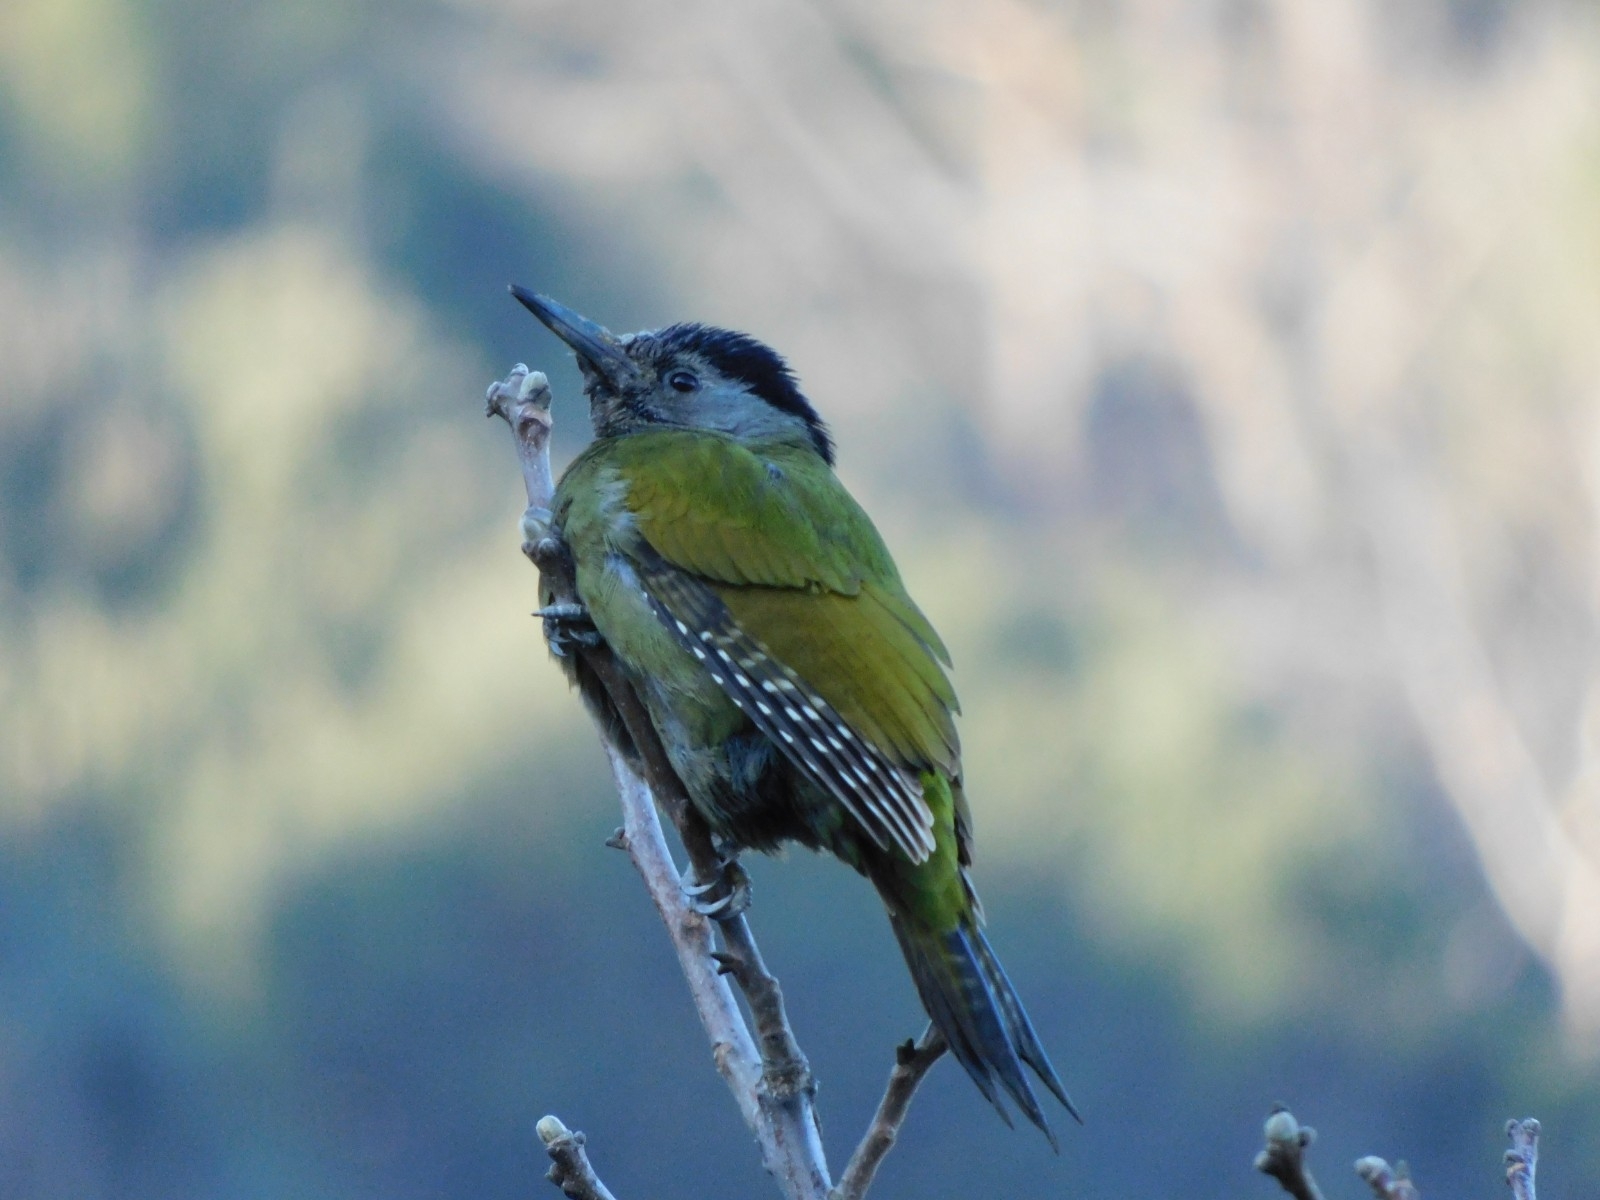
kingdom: Animalia
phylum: Chordata
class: Aves
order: Piciformes
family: Picidae
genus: Picus
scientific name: Picus canus
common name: Grey-headed woodpecker
